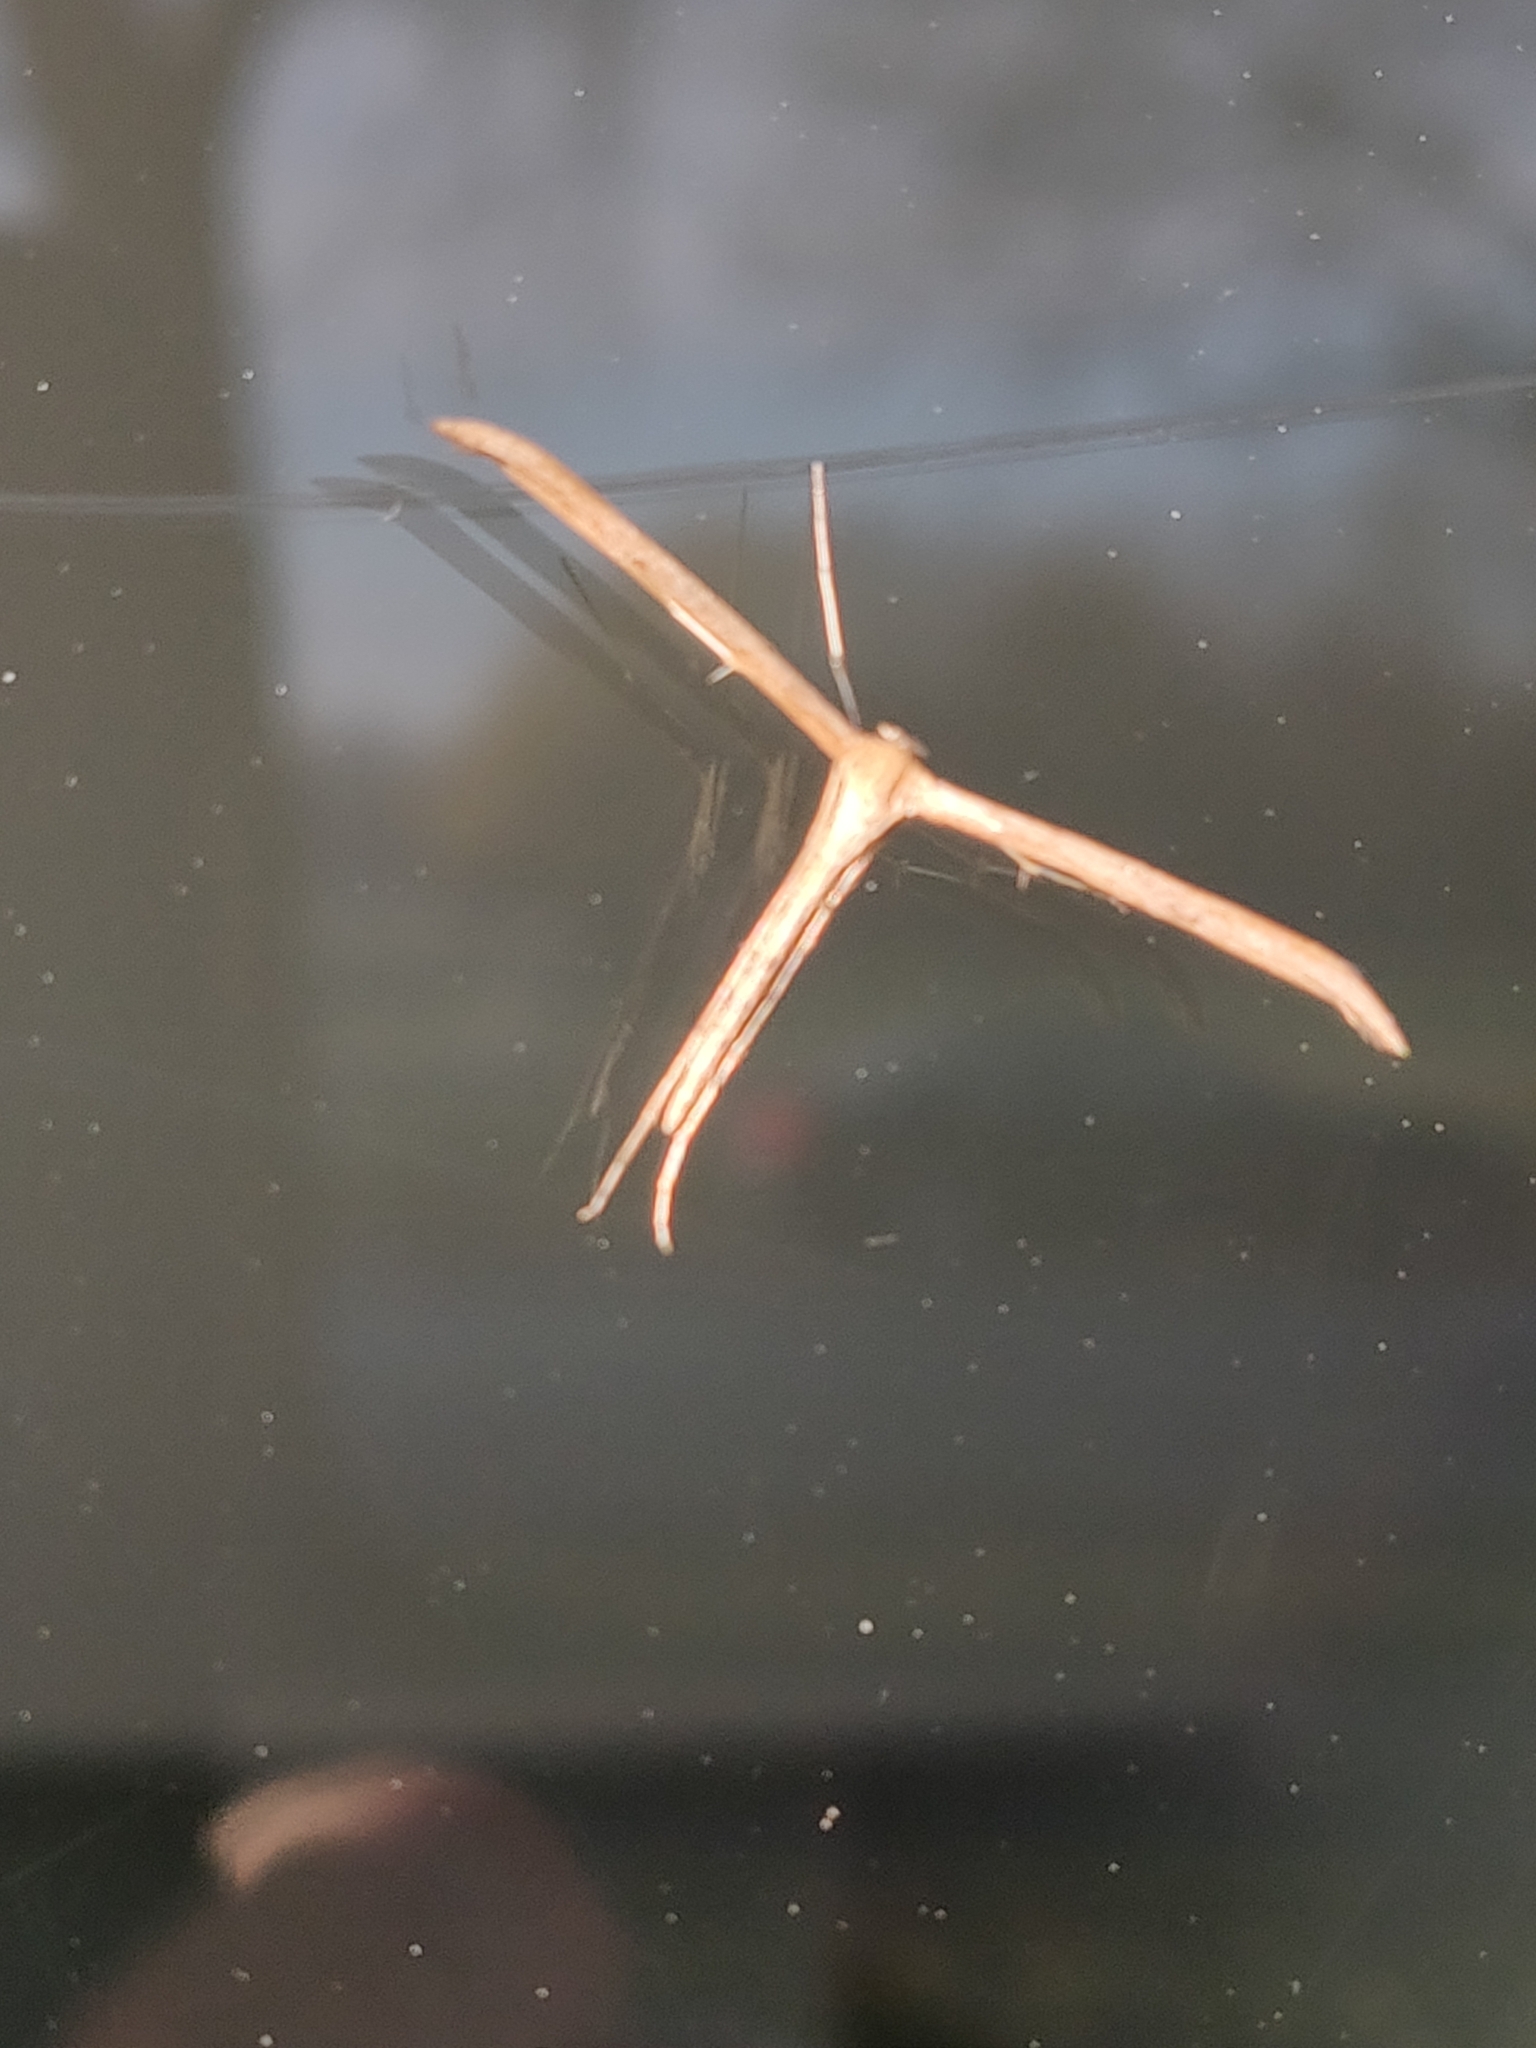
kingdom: Animalia
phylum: Arthropoda
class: Insecta
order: Lepidoptera
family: Pterophoridae
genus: Emmelina
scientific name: Emmelina monodactyla
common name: Common plume
